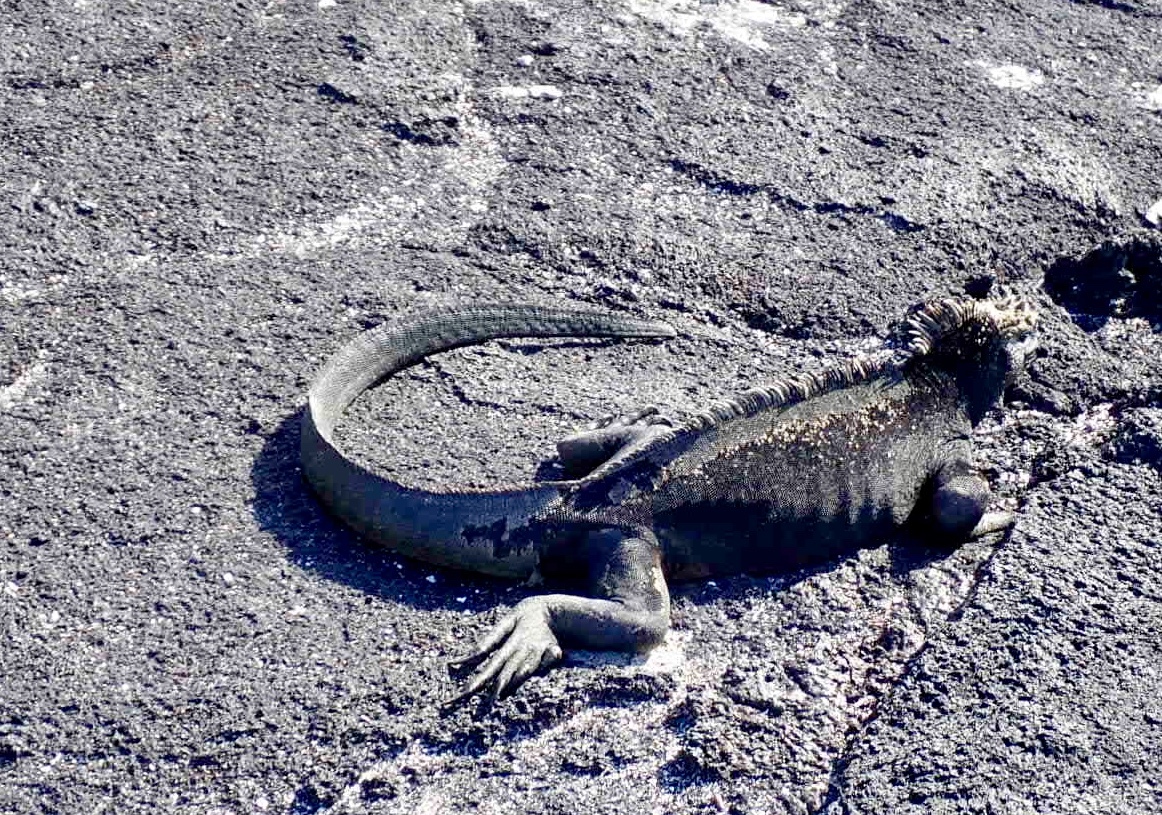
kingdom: Animalia
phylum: Chordata
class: Squamata
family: Iguanidae
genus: Amblyrhynchus
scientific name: Amblyrhynchus cristatus
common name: Marine iguana
